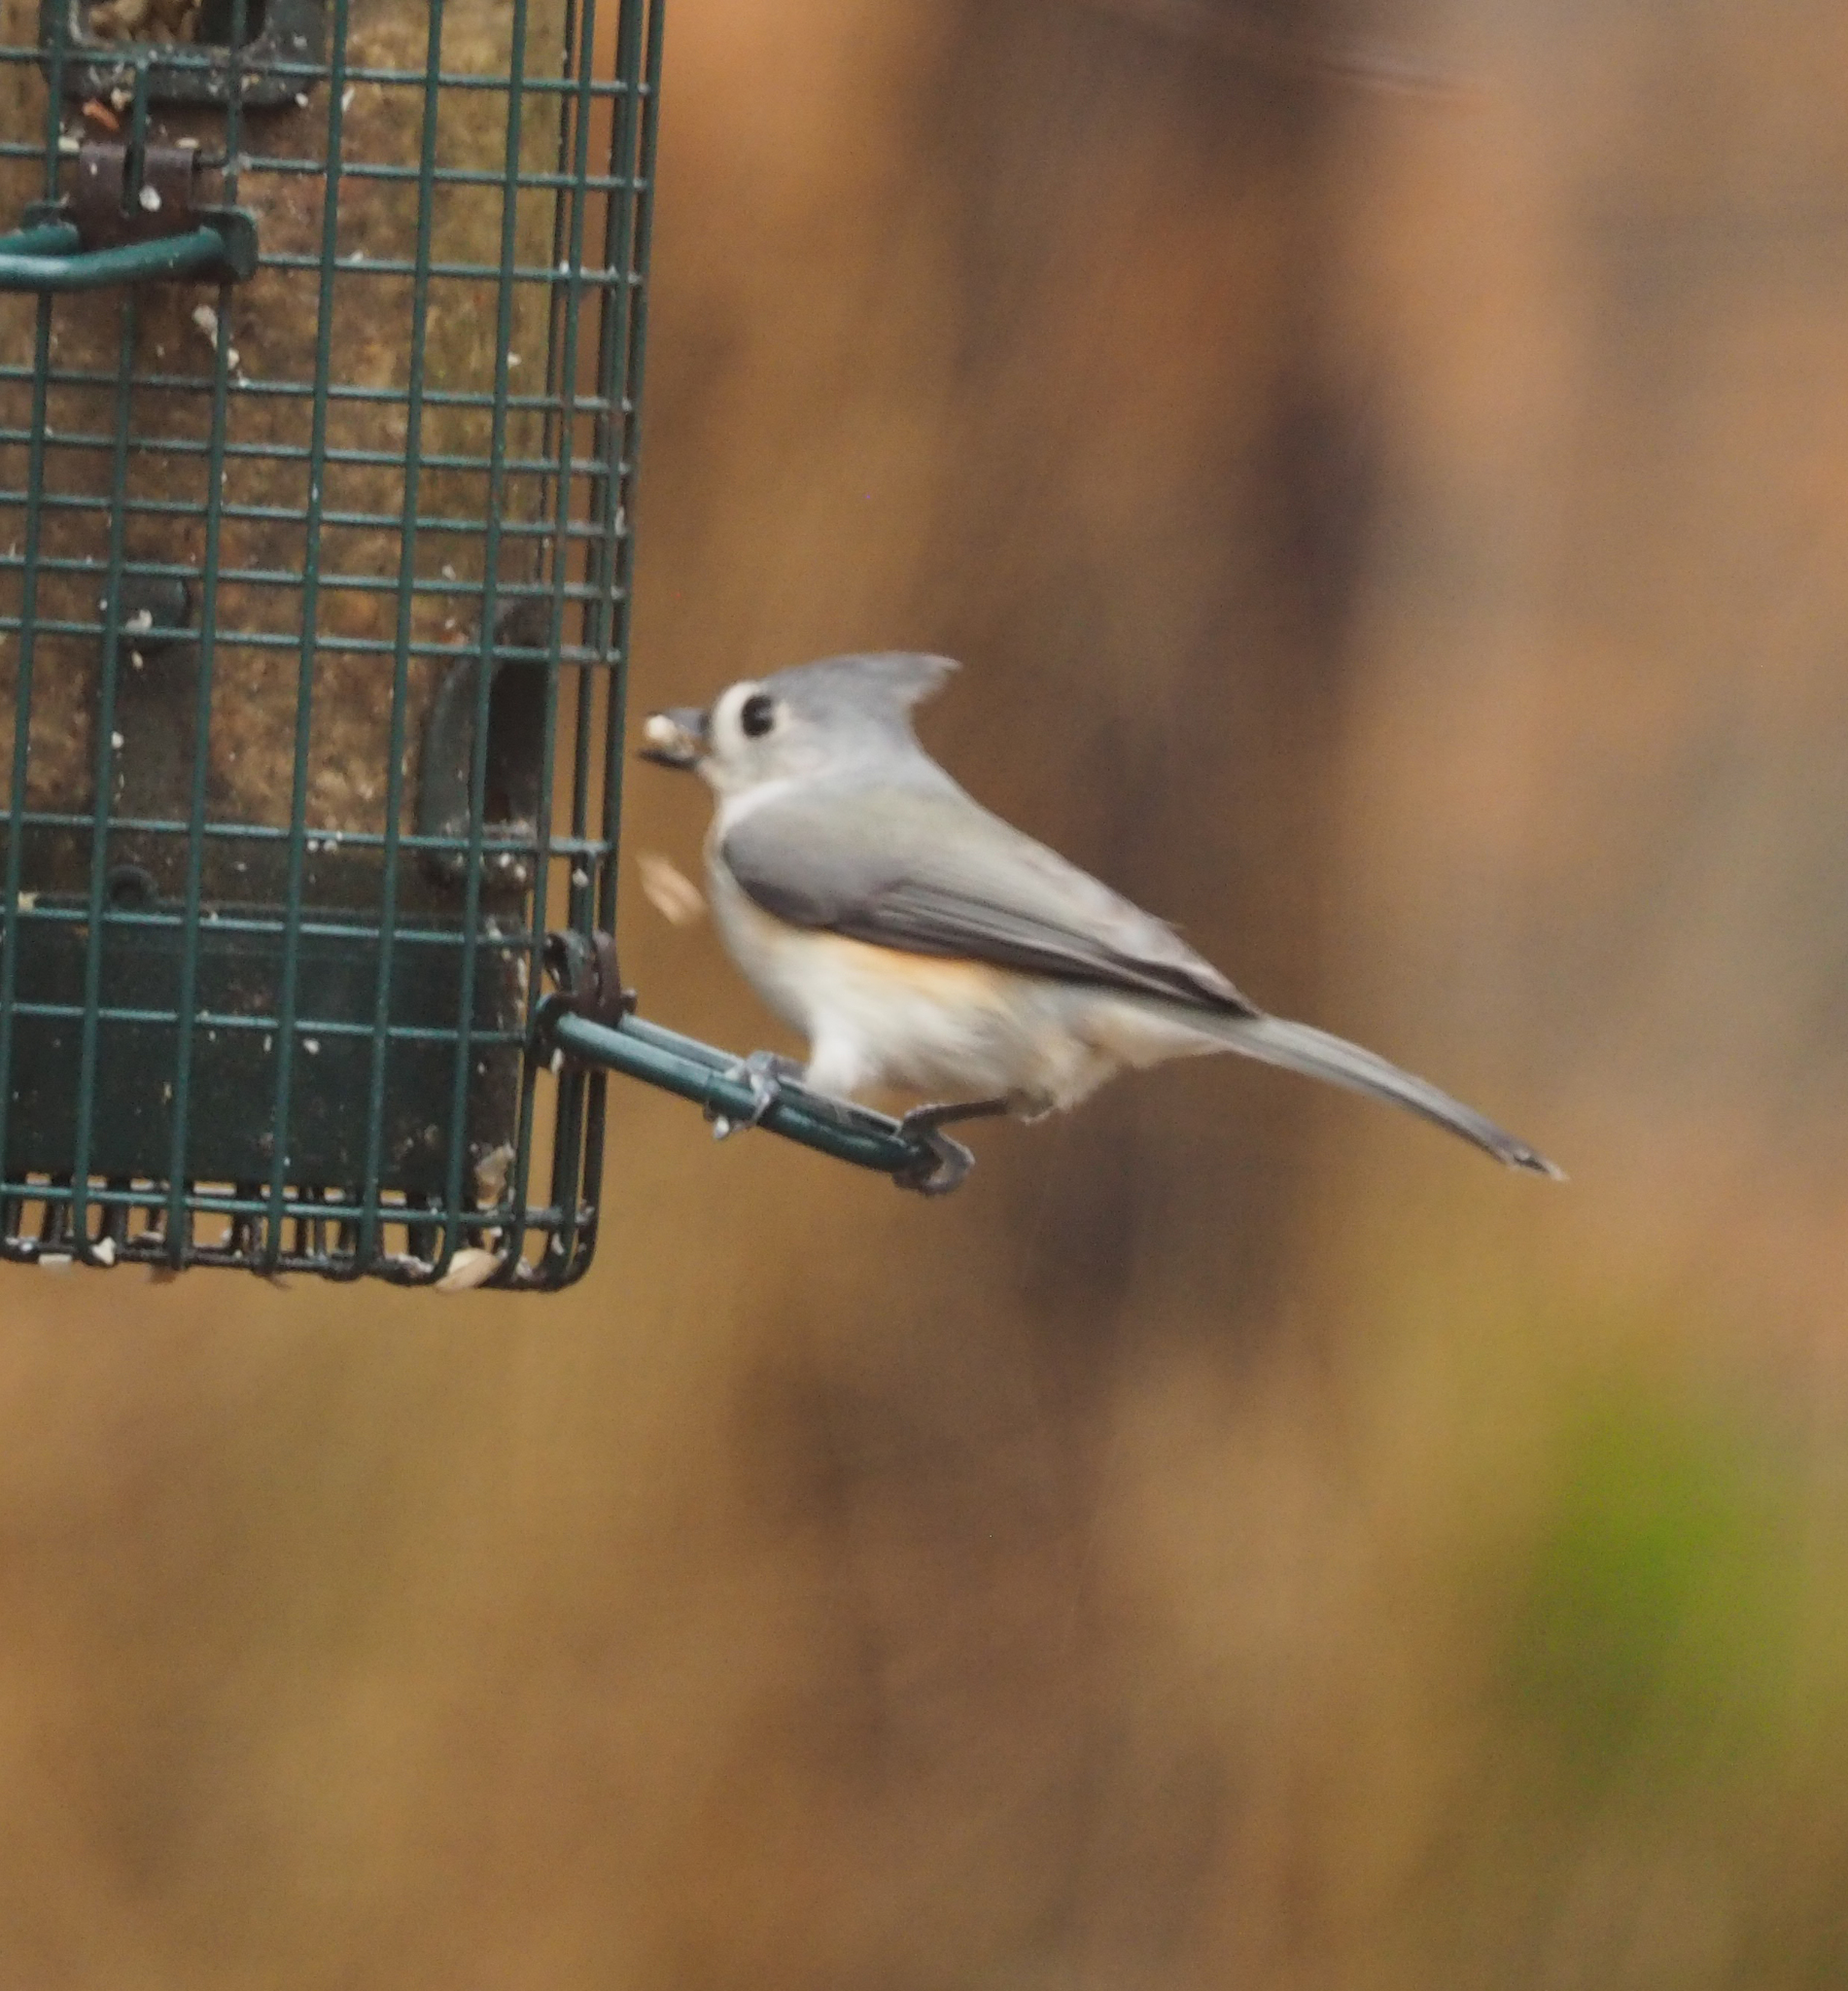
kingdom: Animalia
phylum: Chordata
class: Aves
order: Passeriformes
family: Paridae
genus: Baeolophus
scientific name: Baeolophus bicolor
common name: Tufted titmouse
